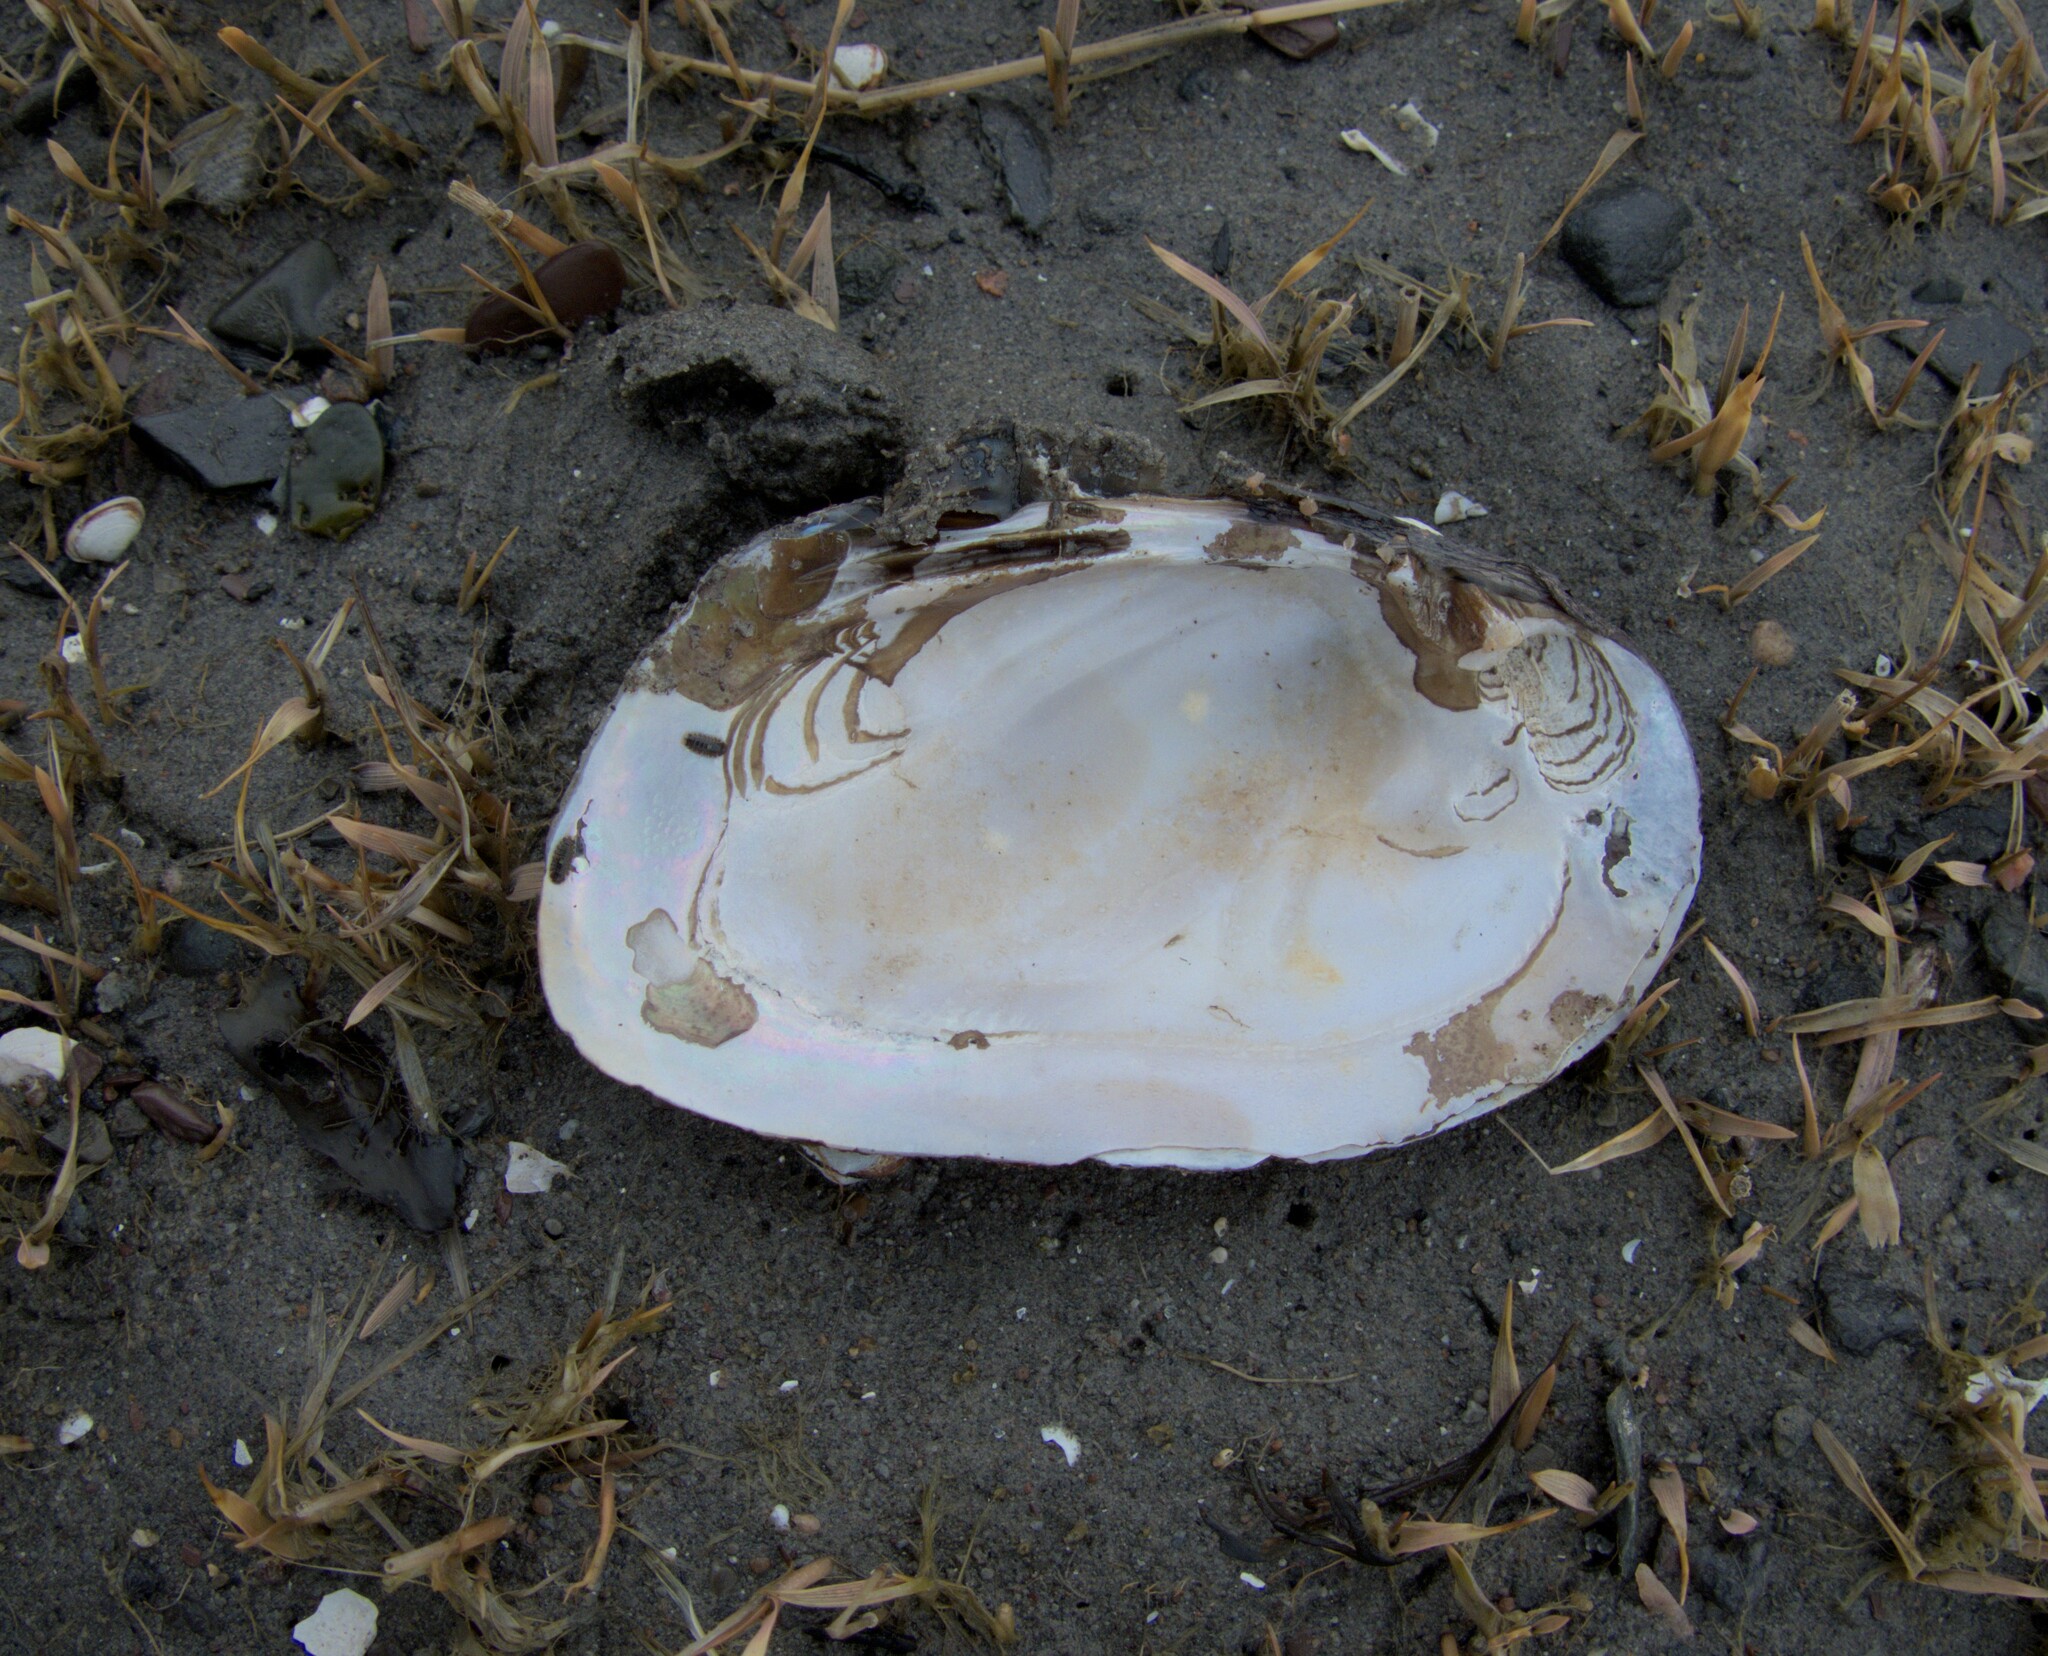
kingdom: Animalia
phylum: Mollusca
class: Bivalvia
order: Unionida
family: Unionidae
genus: Elliptio
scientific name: Elliptio complanata
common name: Eastern elliptio
